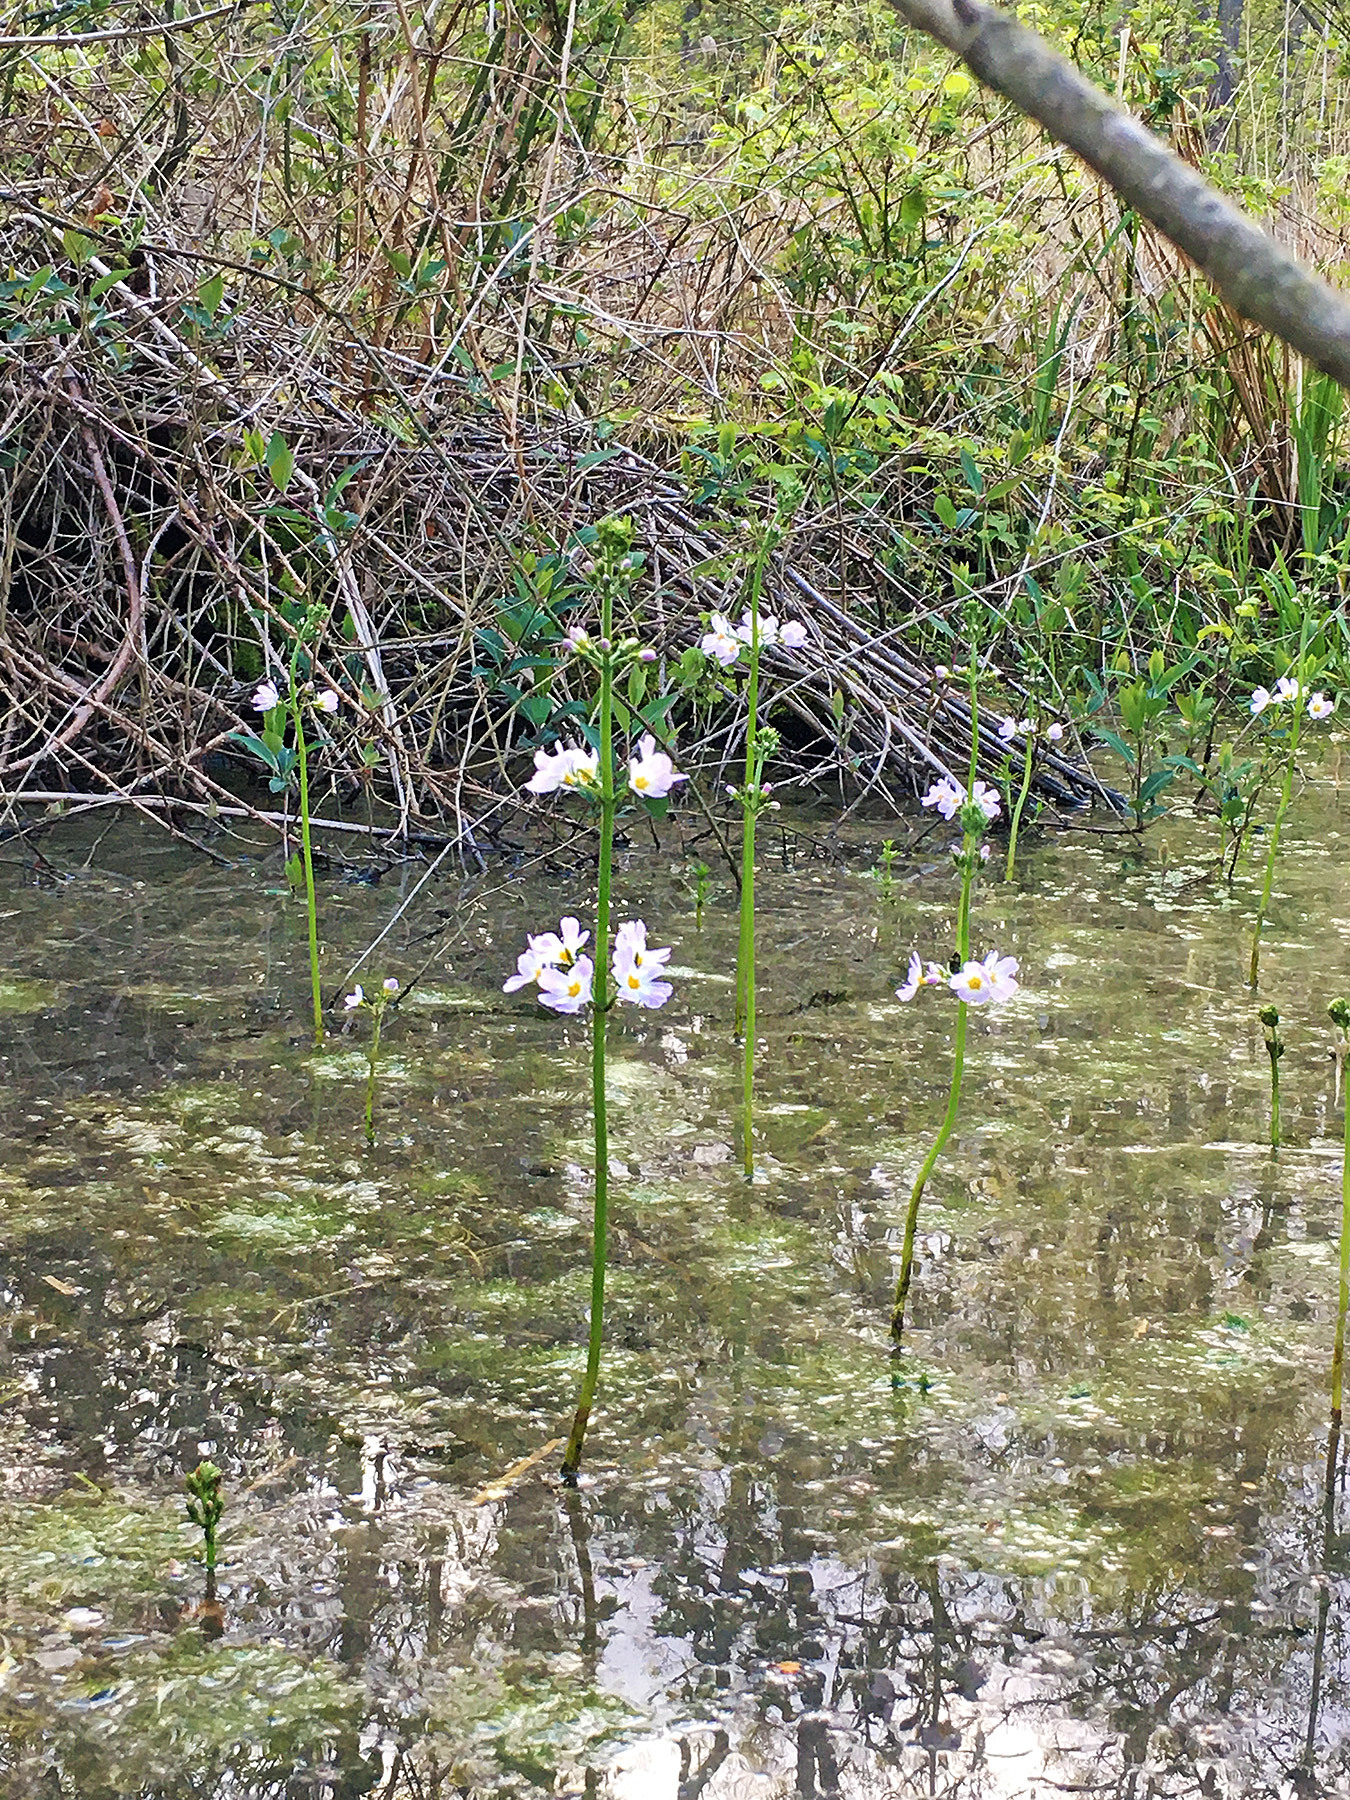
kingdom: Plantae
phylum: Tracheophyta
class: Magnoliopsida
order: Ericales
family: Primulaceae
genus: Hottonia
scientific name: Hottonia palustris
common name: Water-violet
